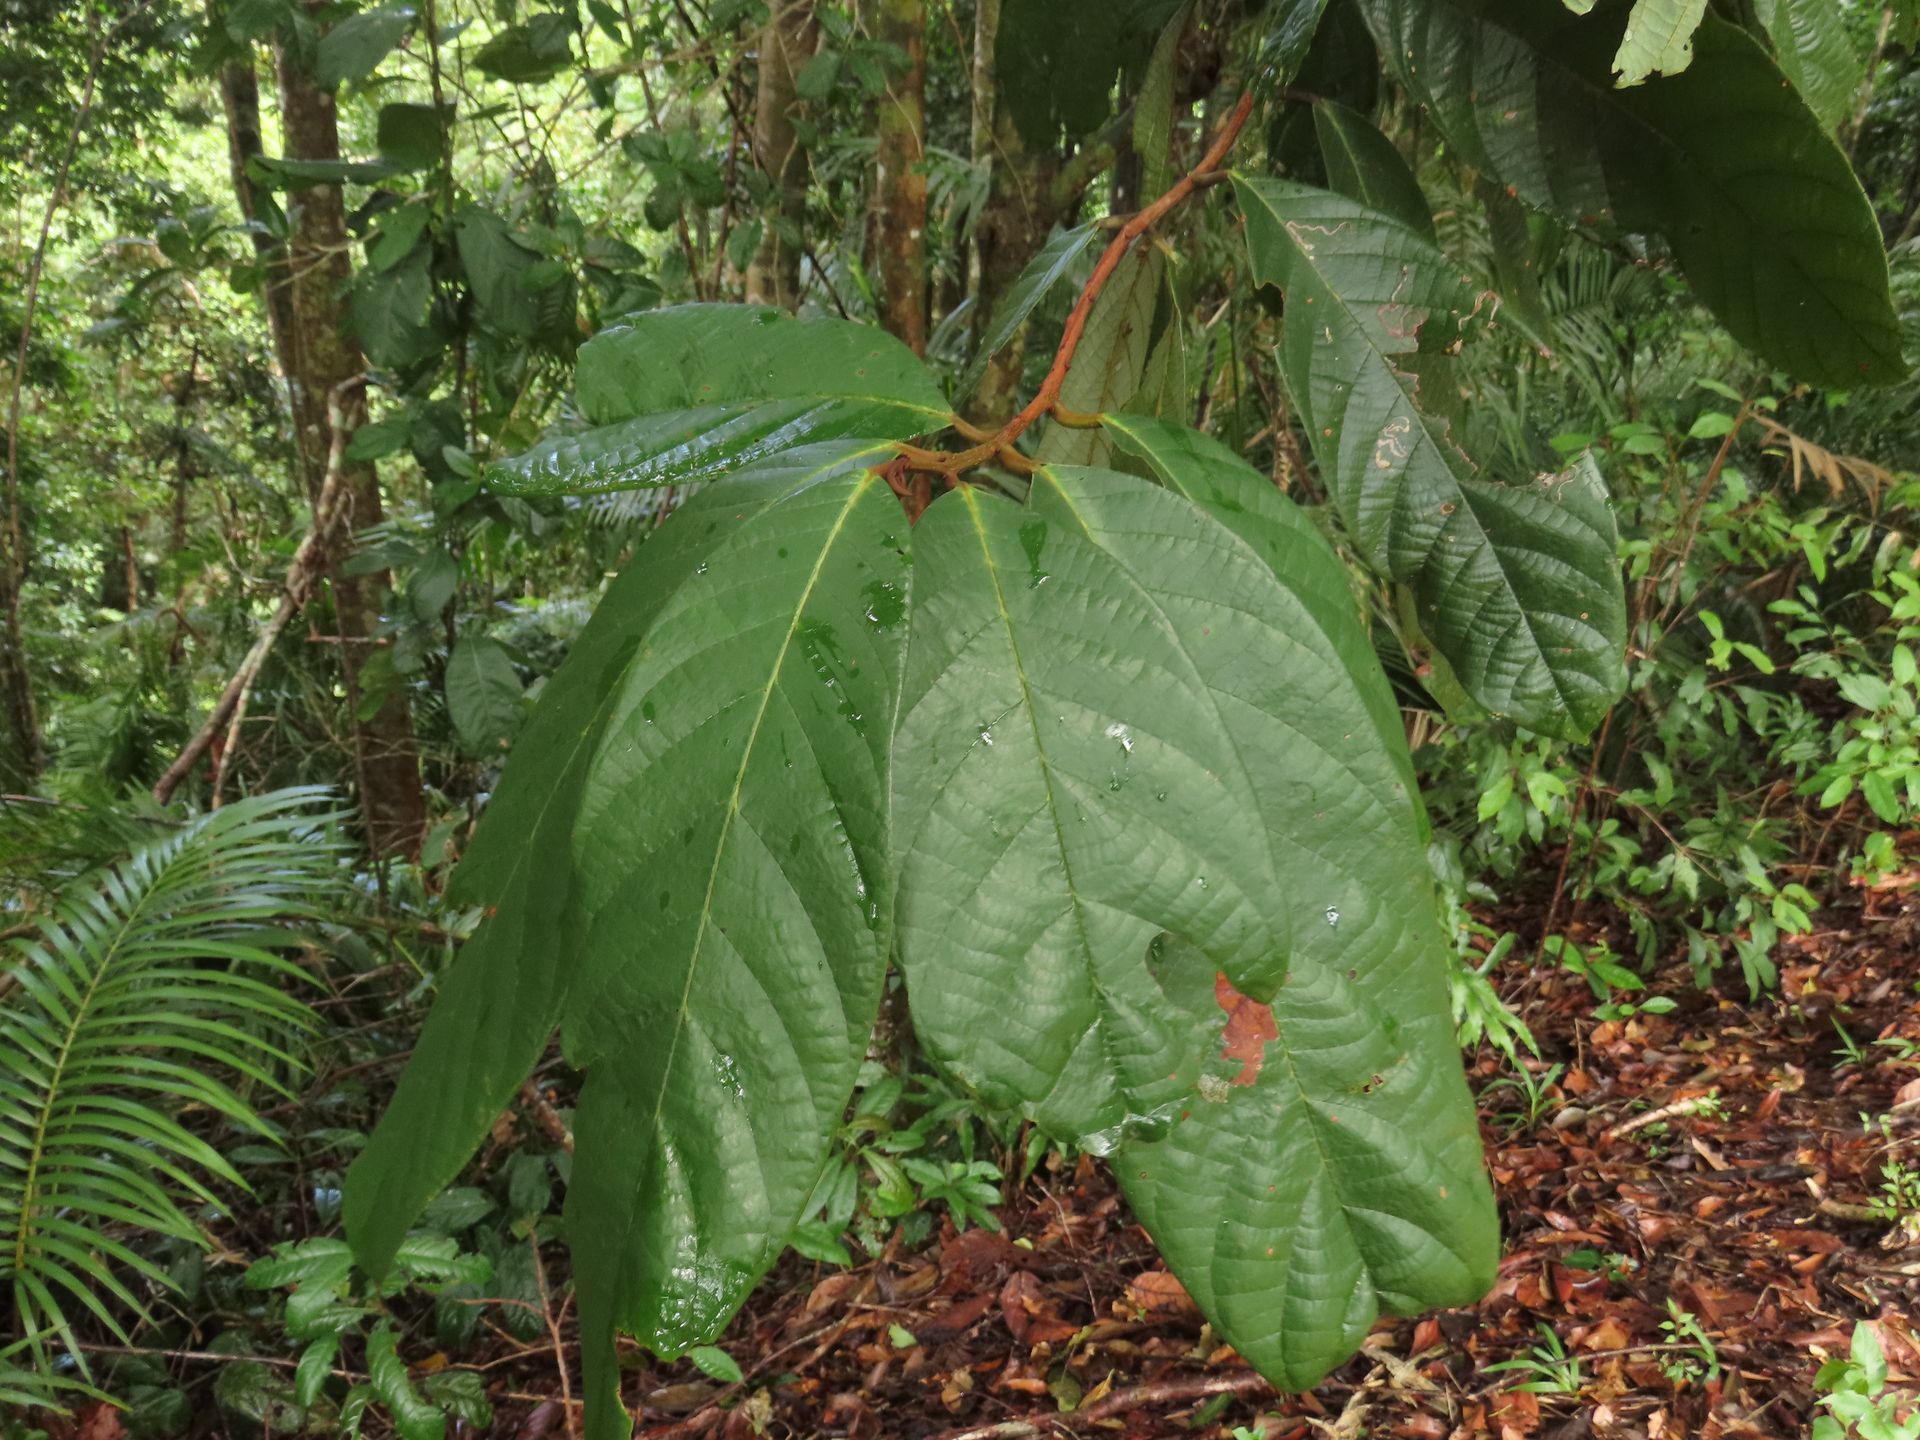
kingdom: Plantae
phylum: Tracheophyta
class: Magnoliopsida
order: Laurales
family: Lauraceae
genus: Cryptocarya
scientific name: Cryptocarya mackinnoniana
